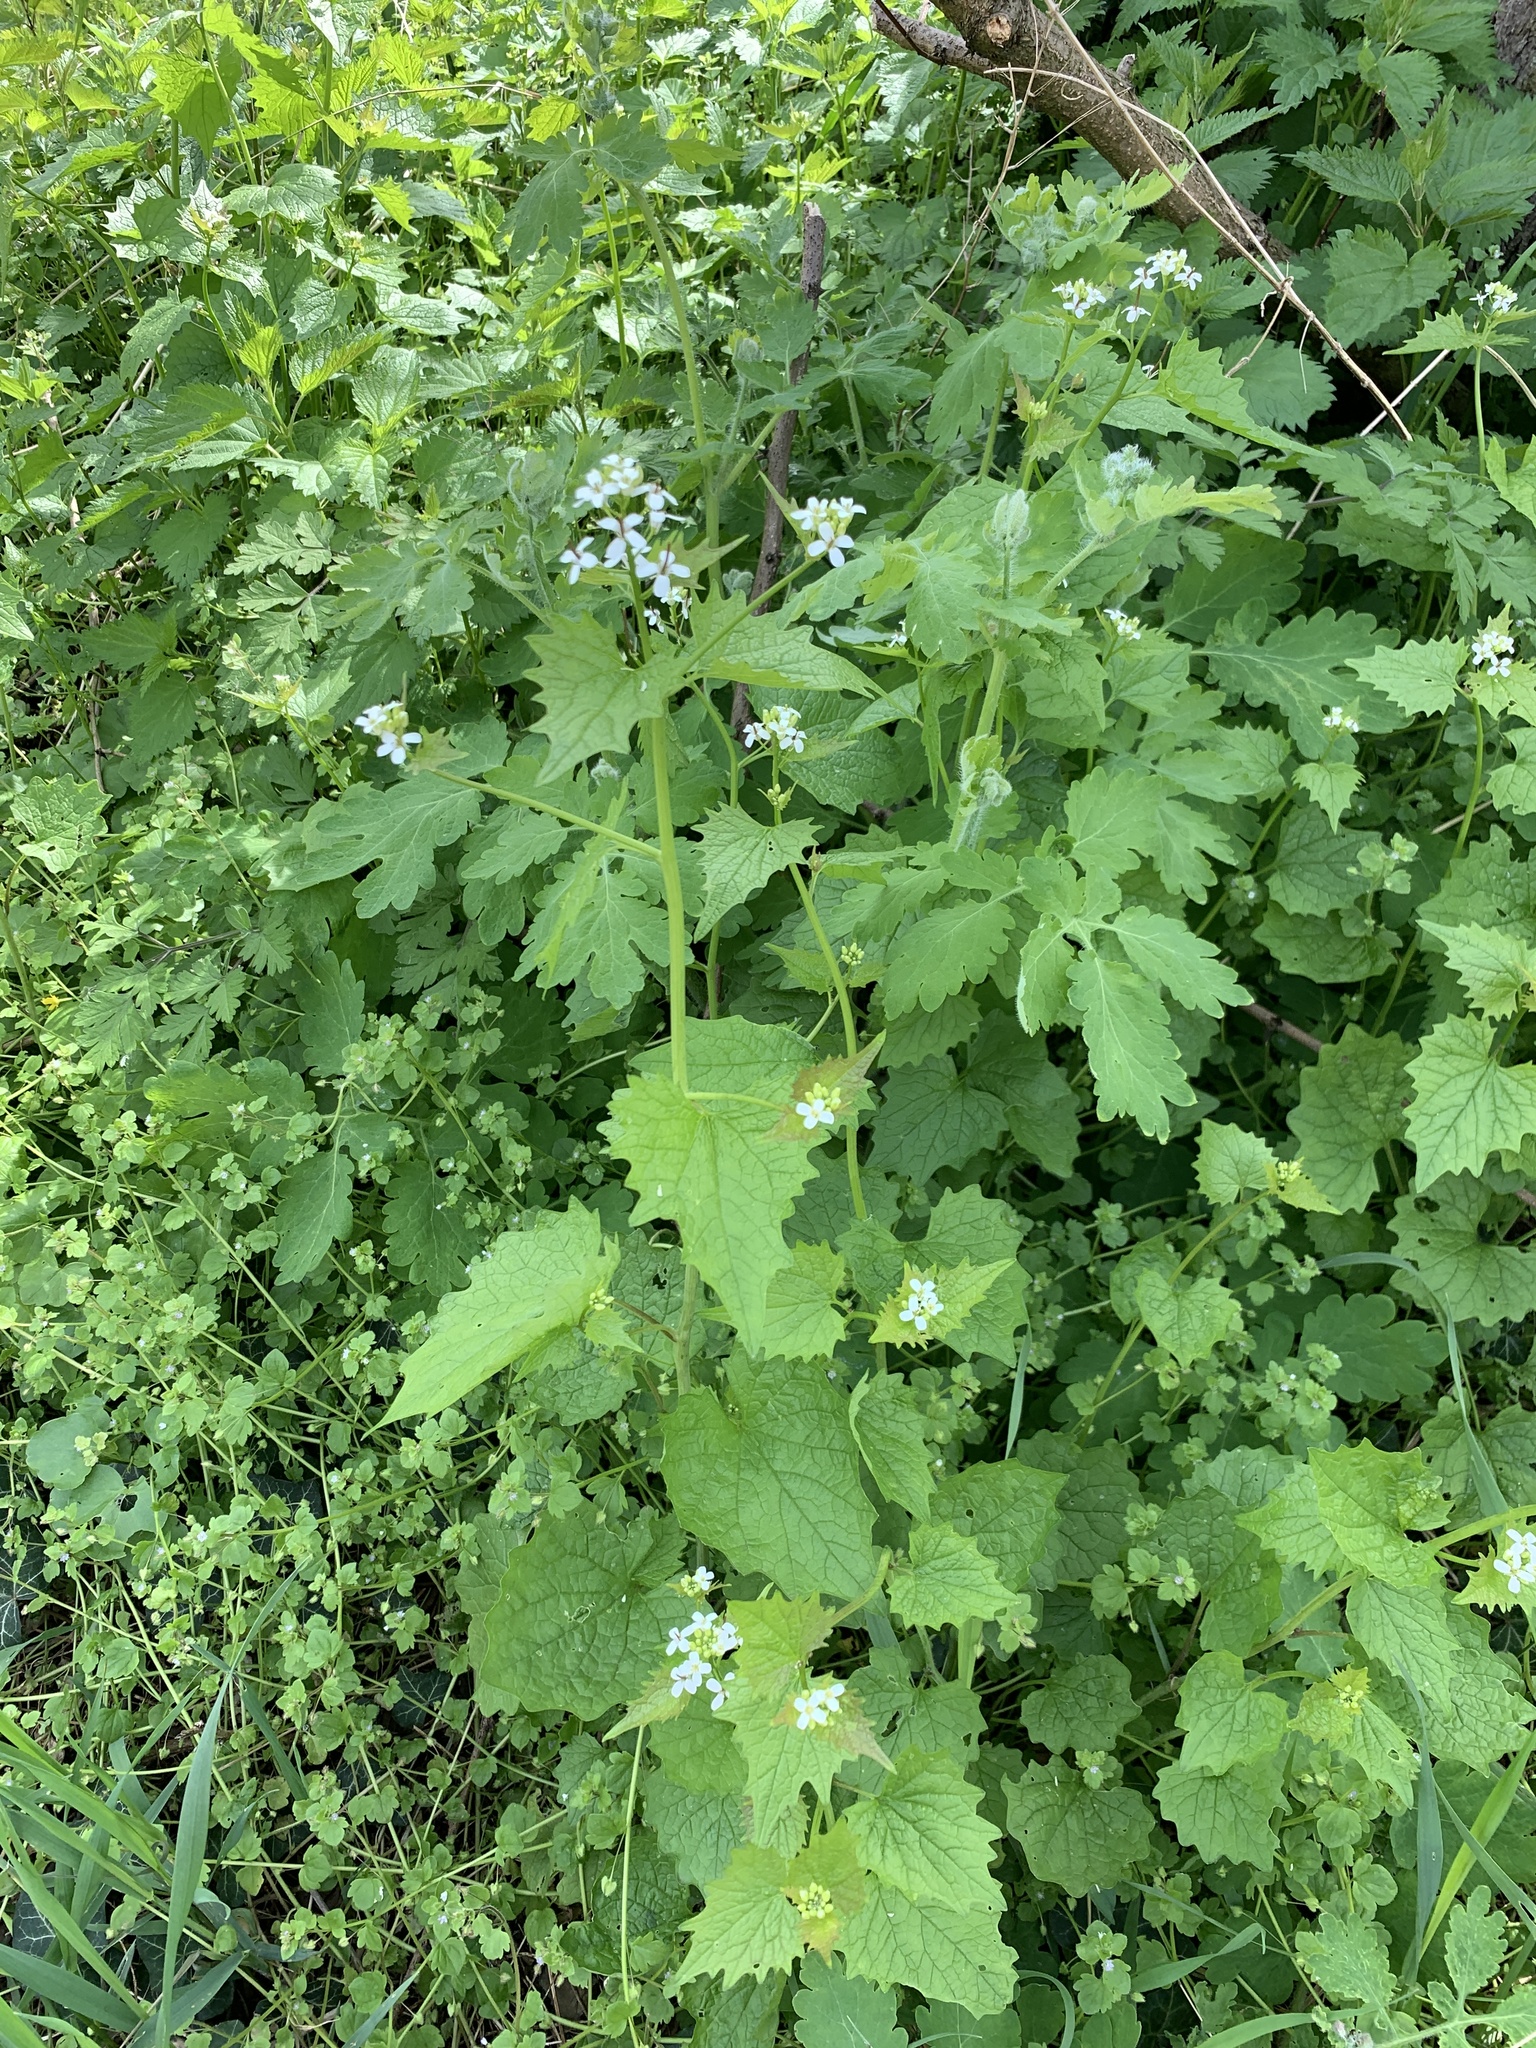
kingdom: Plantae
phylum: Tracheophyta
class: Magnoliopsida
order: Brassicales
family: Brassicaceae
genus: Alliaria
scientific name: Alliaria petiolata
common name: Garlic mustard
